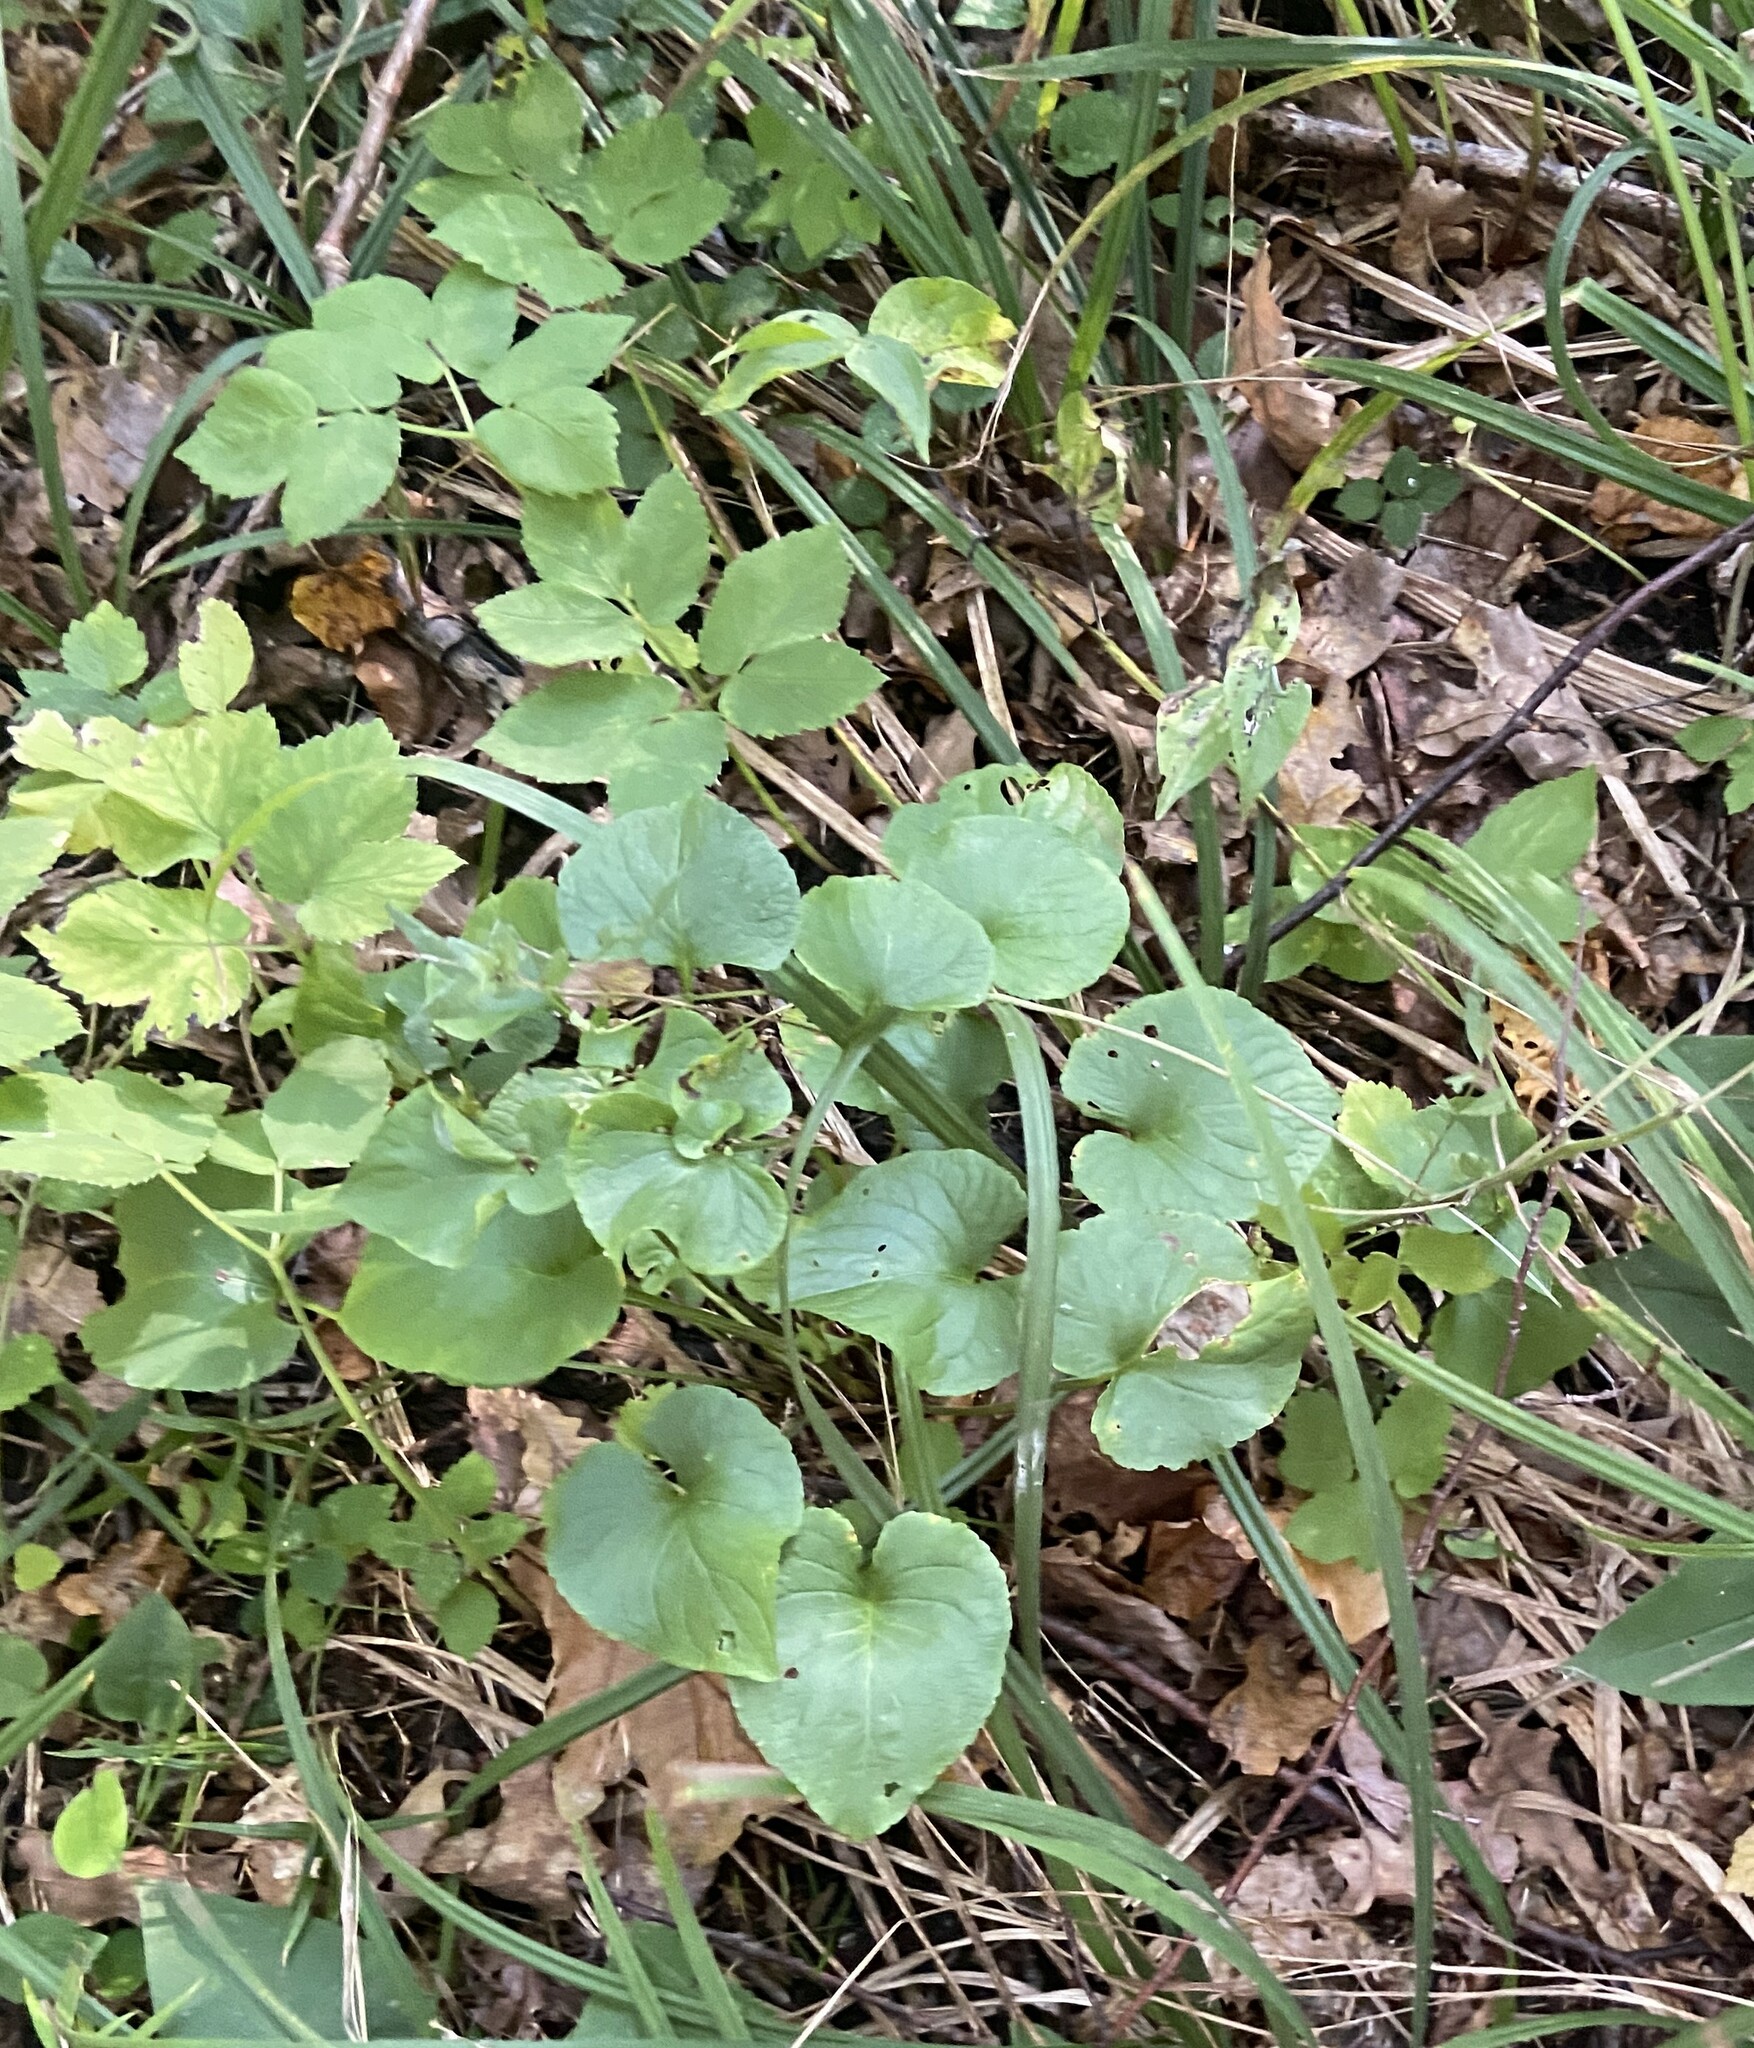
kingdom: Plantae
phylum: Tracheophyta
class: Magnoliopsida
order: Malpighiales
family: Violaceae
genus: Viola
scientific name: Viola mirabilis
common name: Wonder violet
